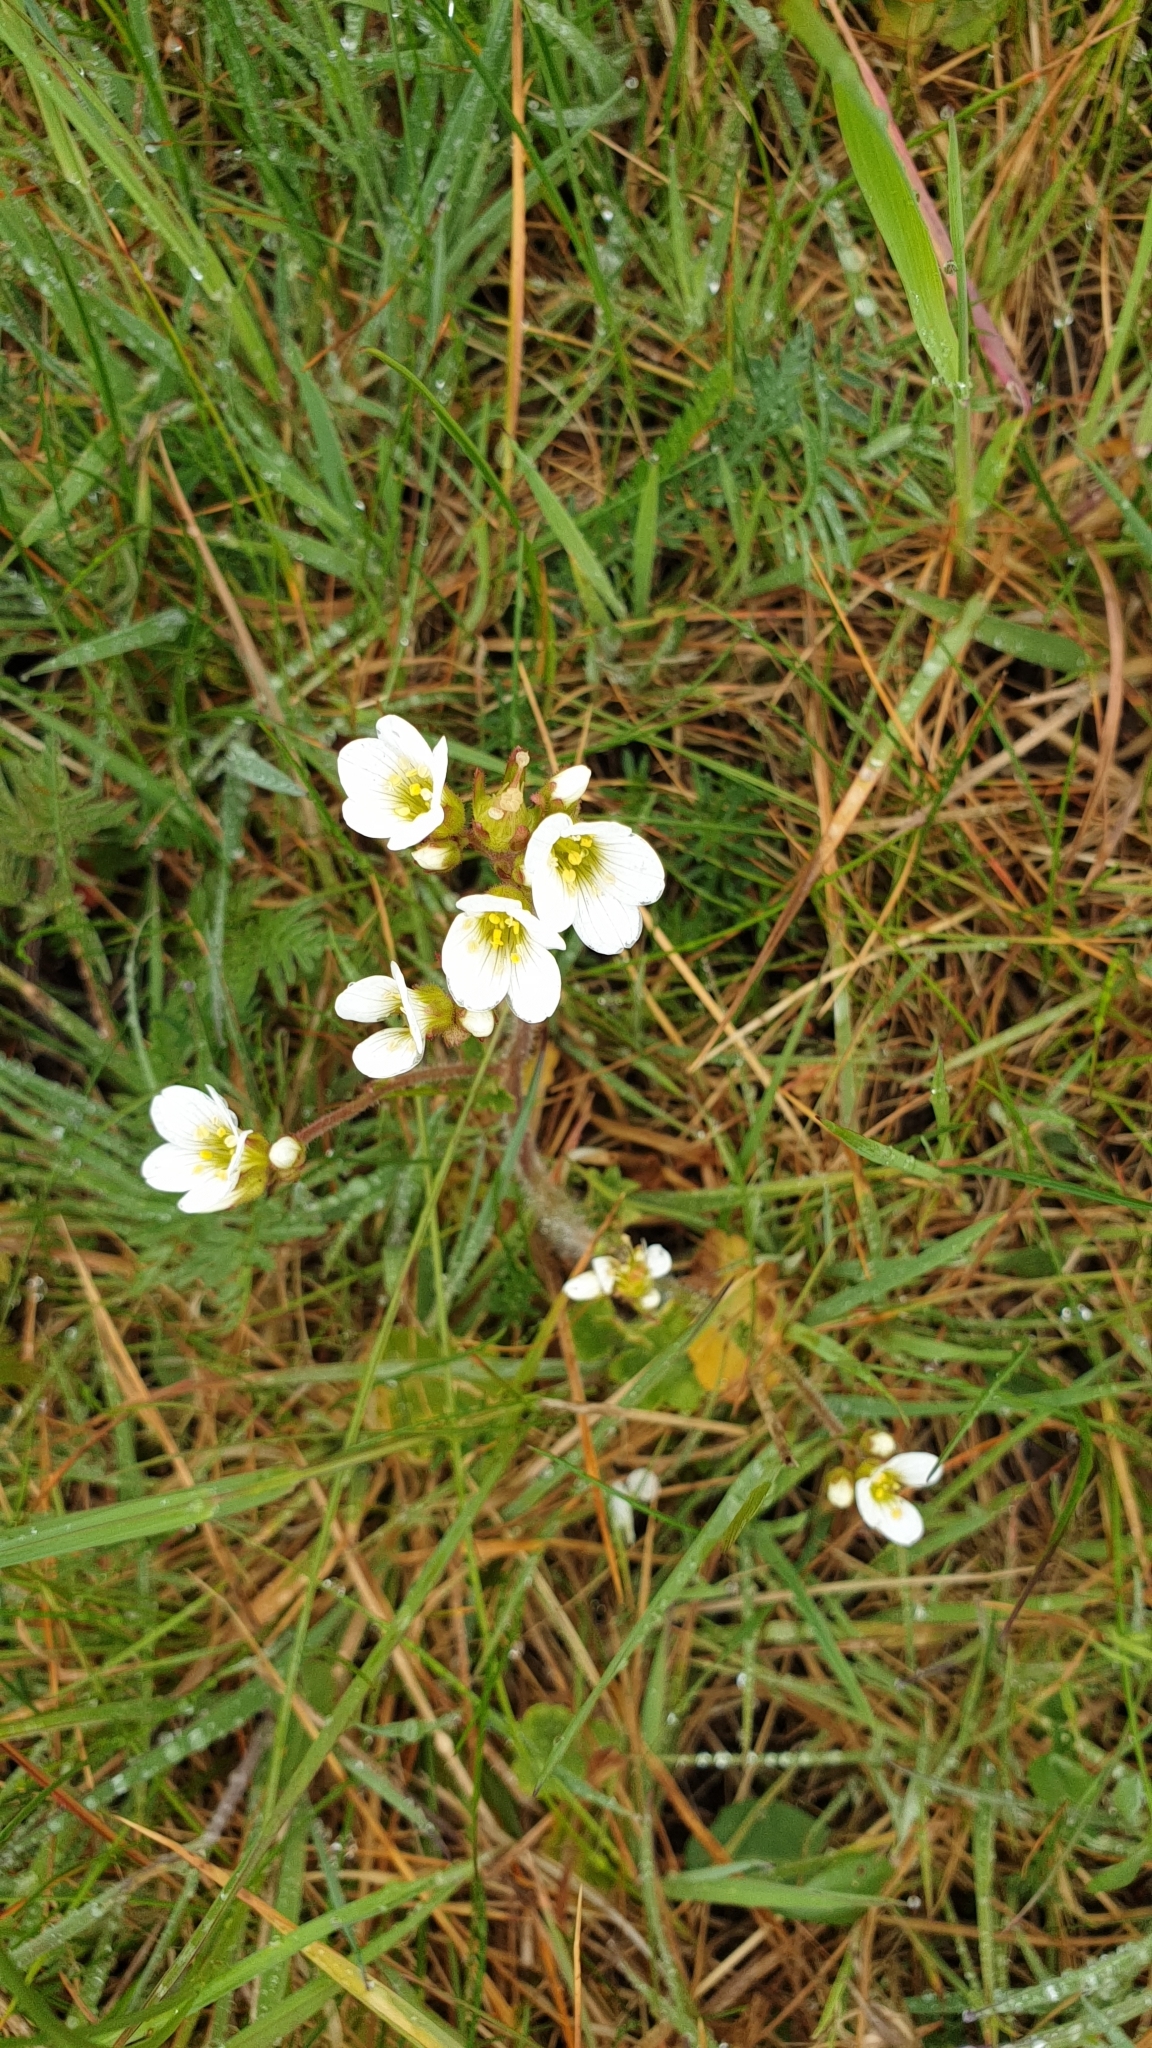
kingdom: Plantae
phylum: Tracheophyta
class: Magnoliopsida
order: Saxifragales
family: Saxifragaceae
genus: Saxifraga
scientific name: Saxifraga granulata
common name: Meadow saxifrage
